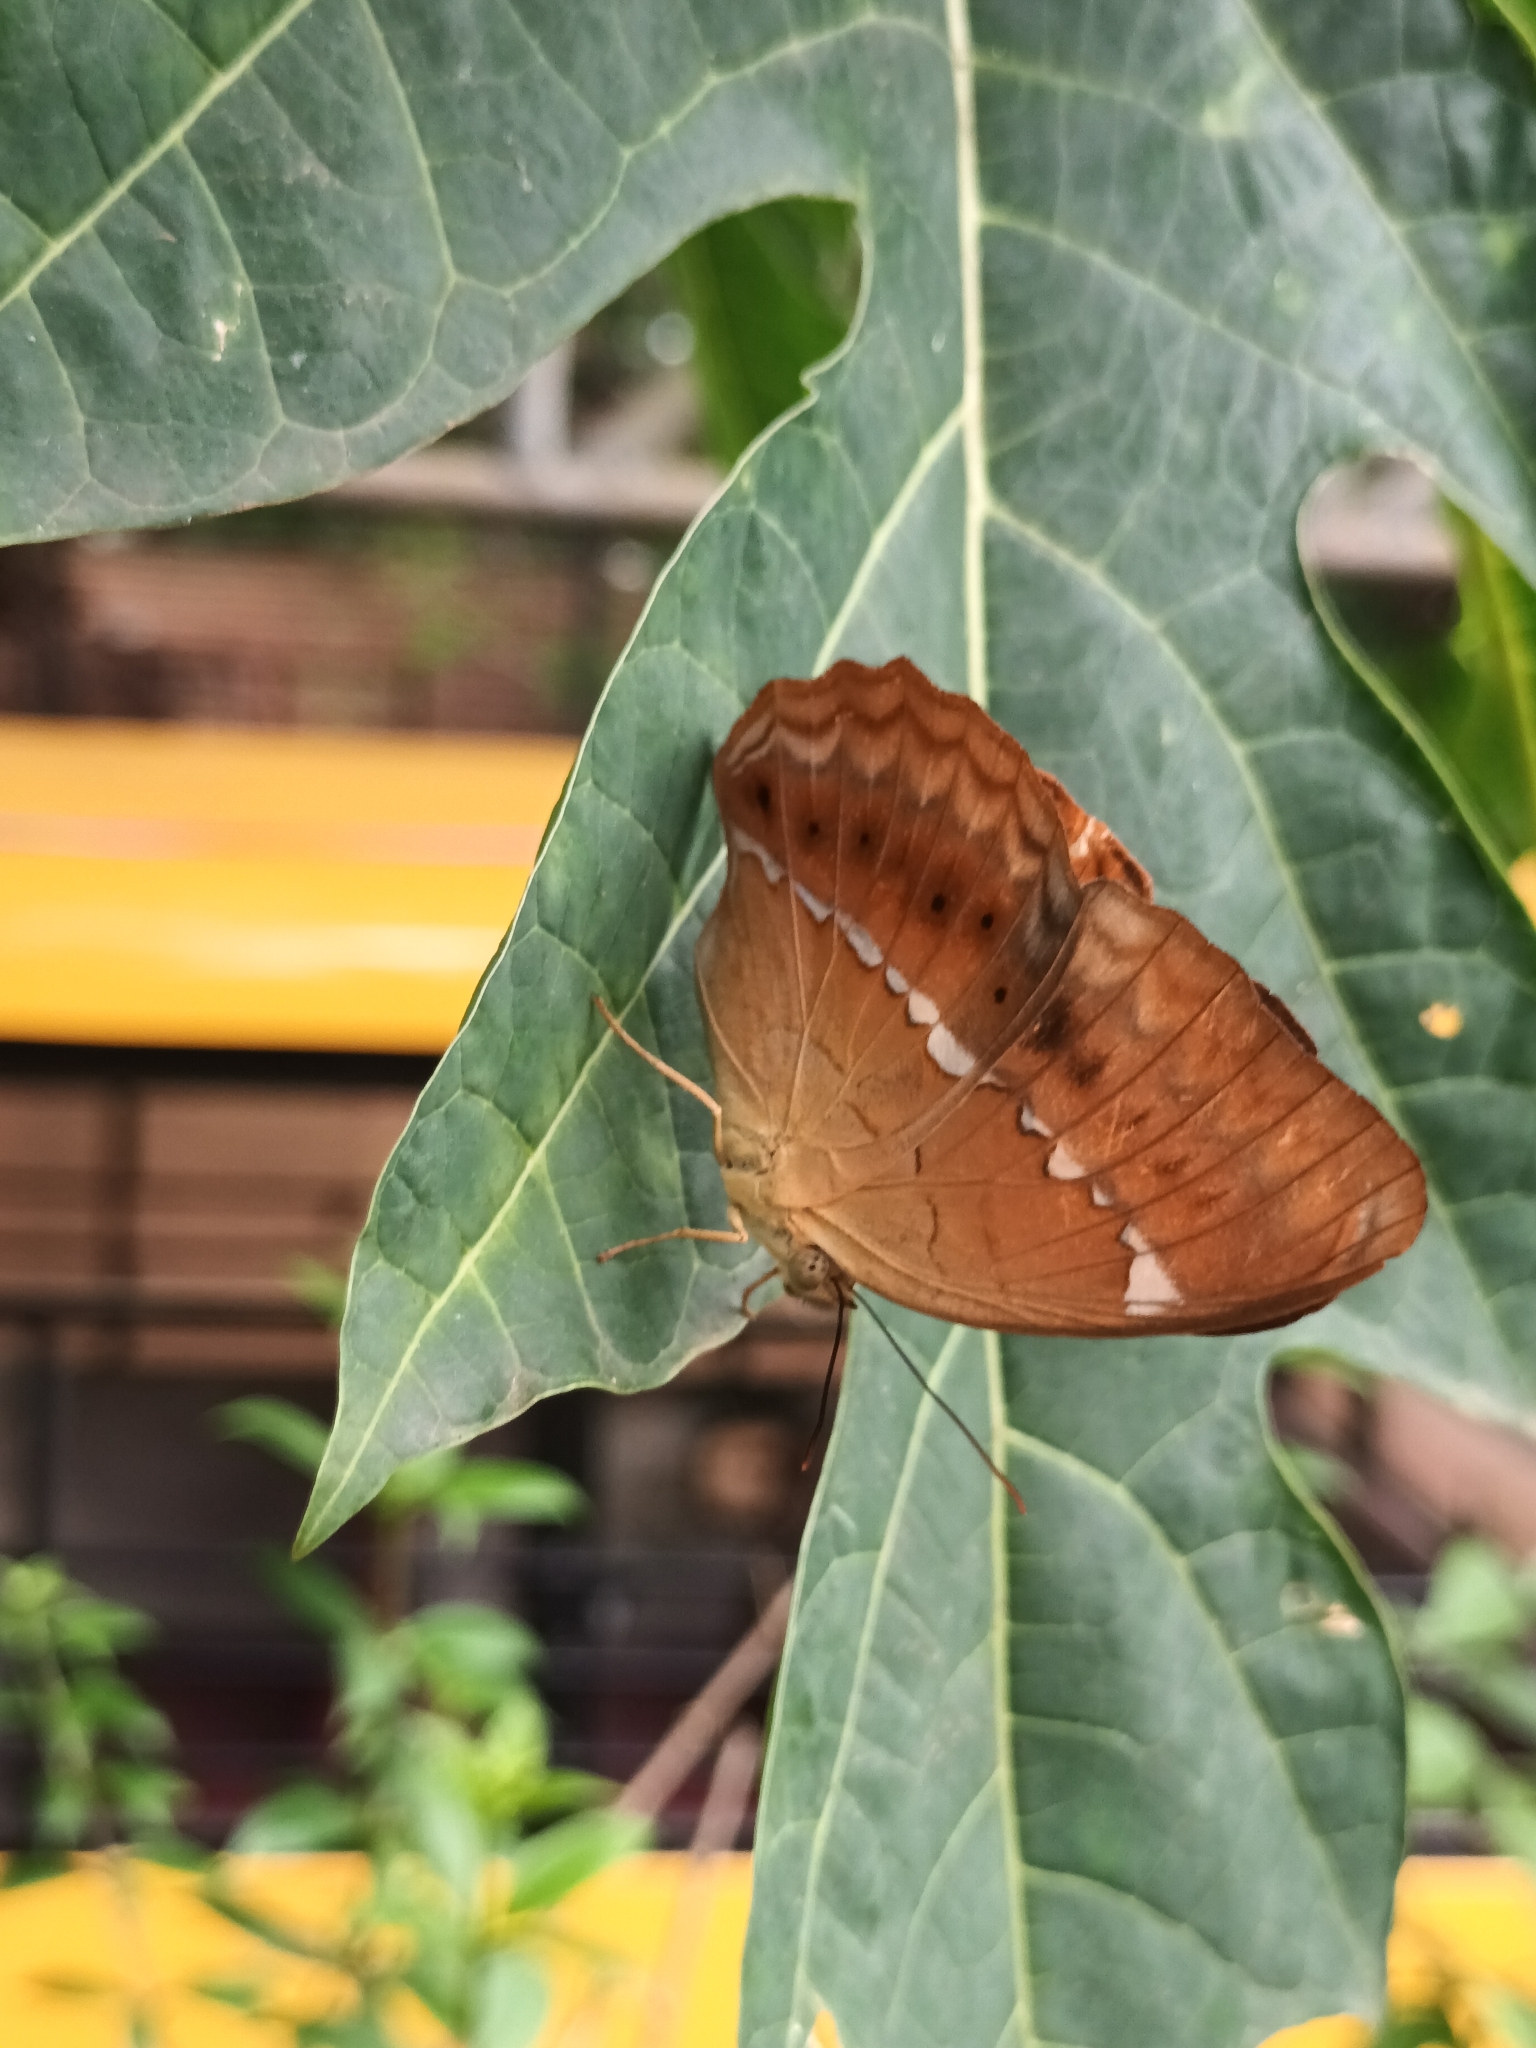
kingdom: Animalia
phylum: Arthropoda
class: Insecta
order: Lepidoptera
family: Nymphalidae
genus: Cirrochroa
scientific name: Cirrochroa thais
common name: Tamil yeoman
